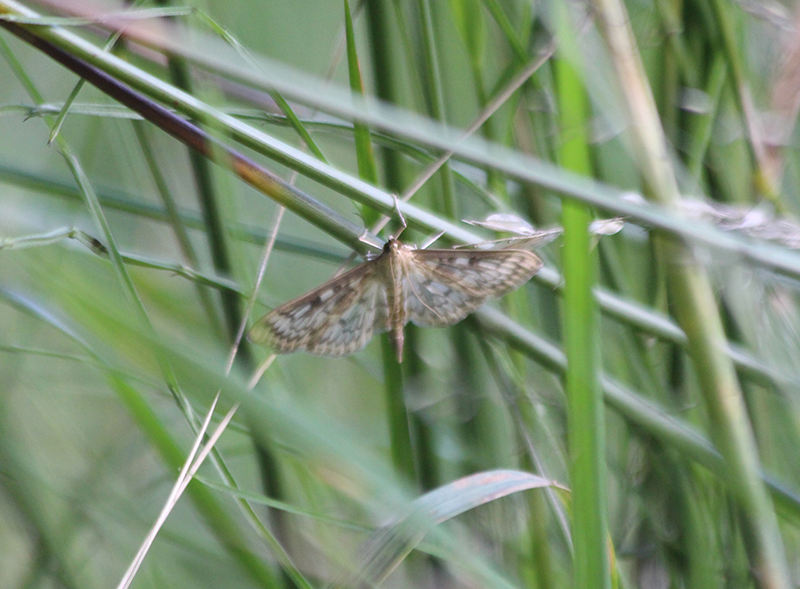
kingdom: Animalia
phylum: Arthropoda
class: Insecta
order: Lepidoptera
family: Crambidae
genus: Herpetogramma
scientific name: Herpetogramma aquilonalis
